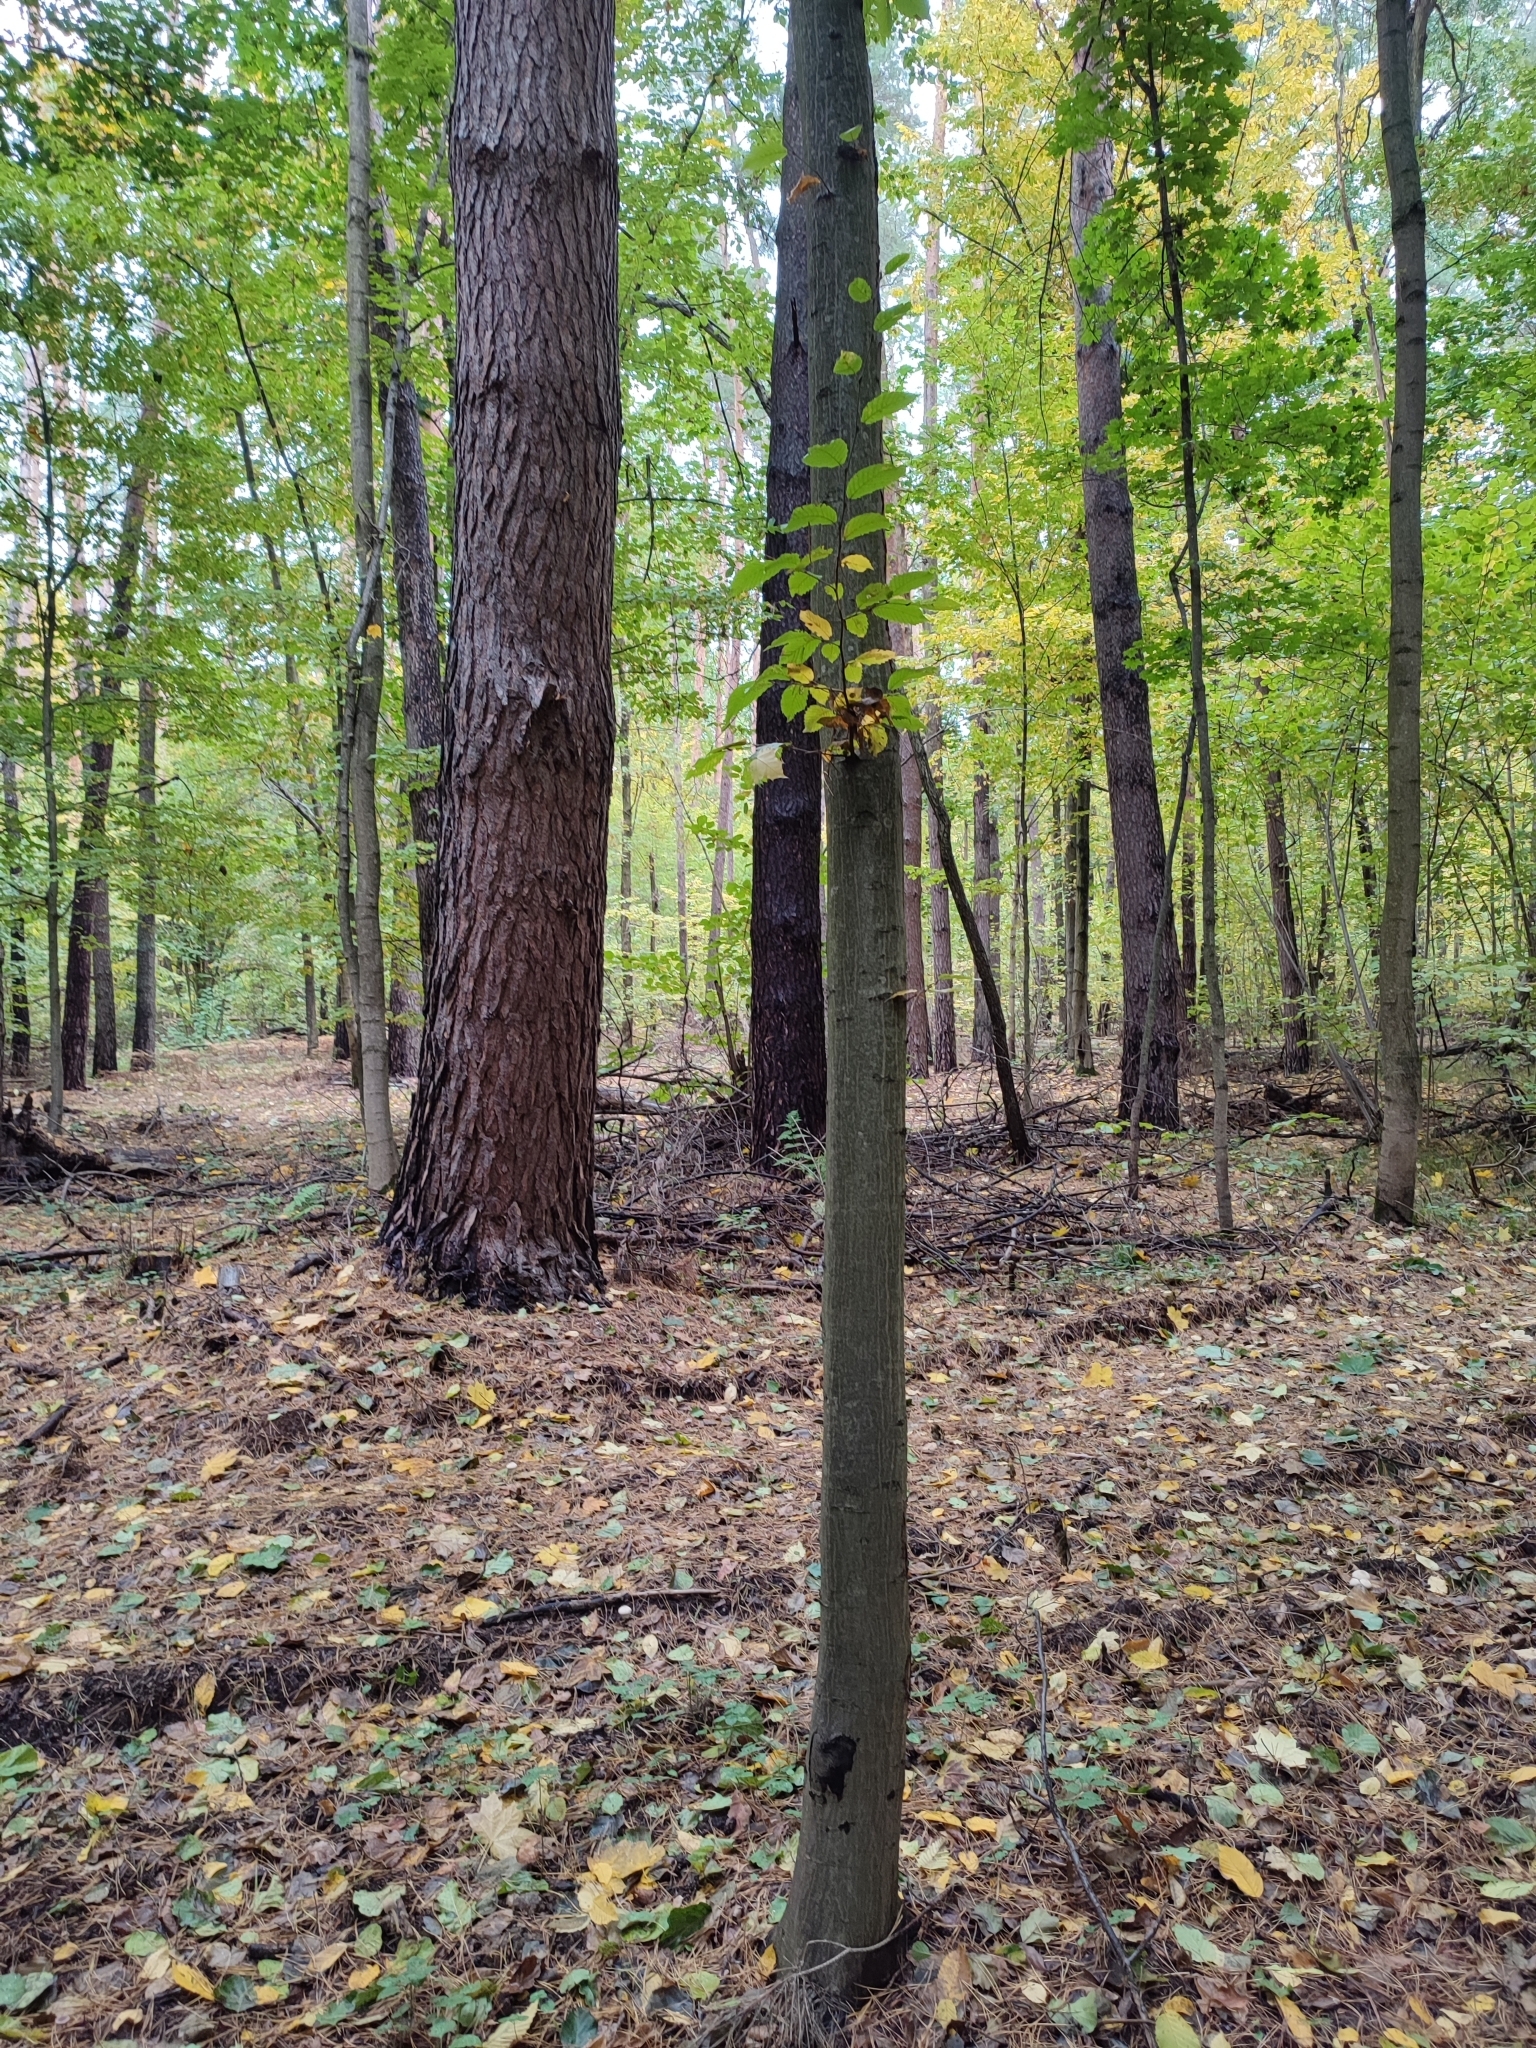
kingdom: Plantae
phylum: Tracheophyta
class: Magnoliopsida
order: Fagales
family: Betulaceae
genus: Carpinus
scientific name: Carpinus betulus
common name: Hornbeam
